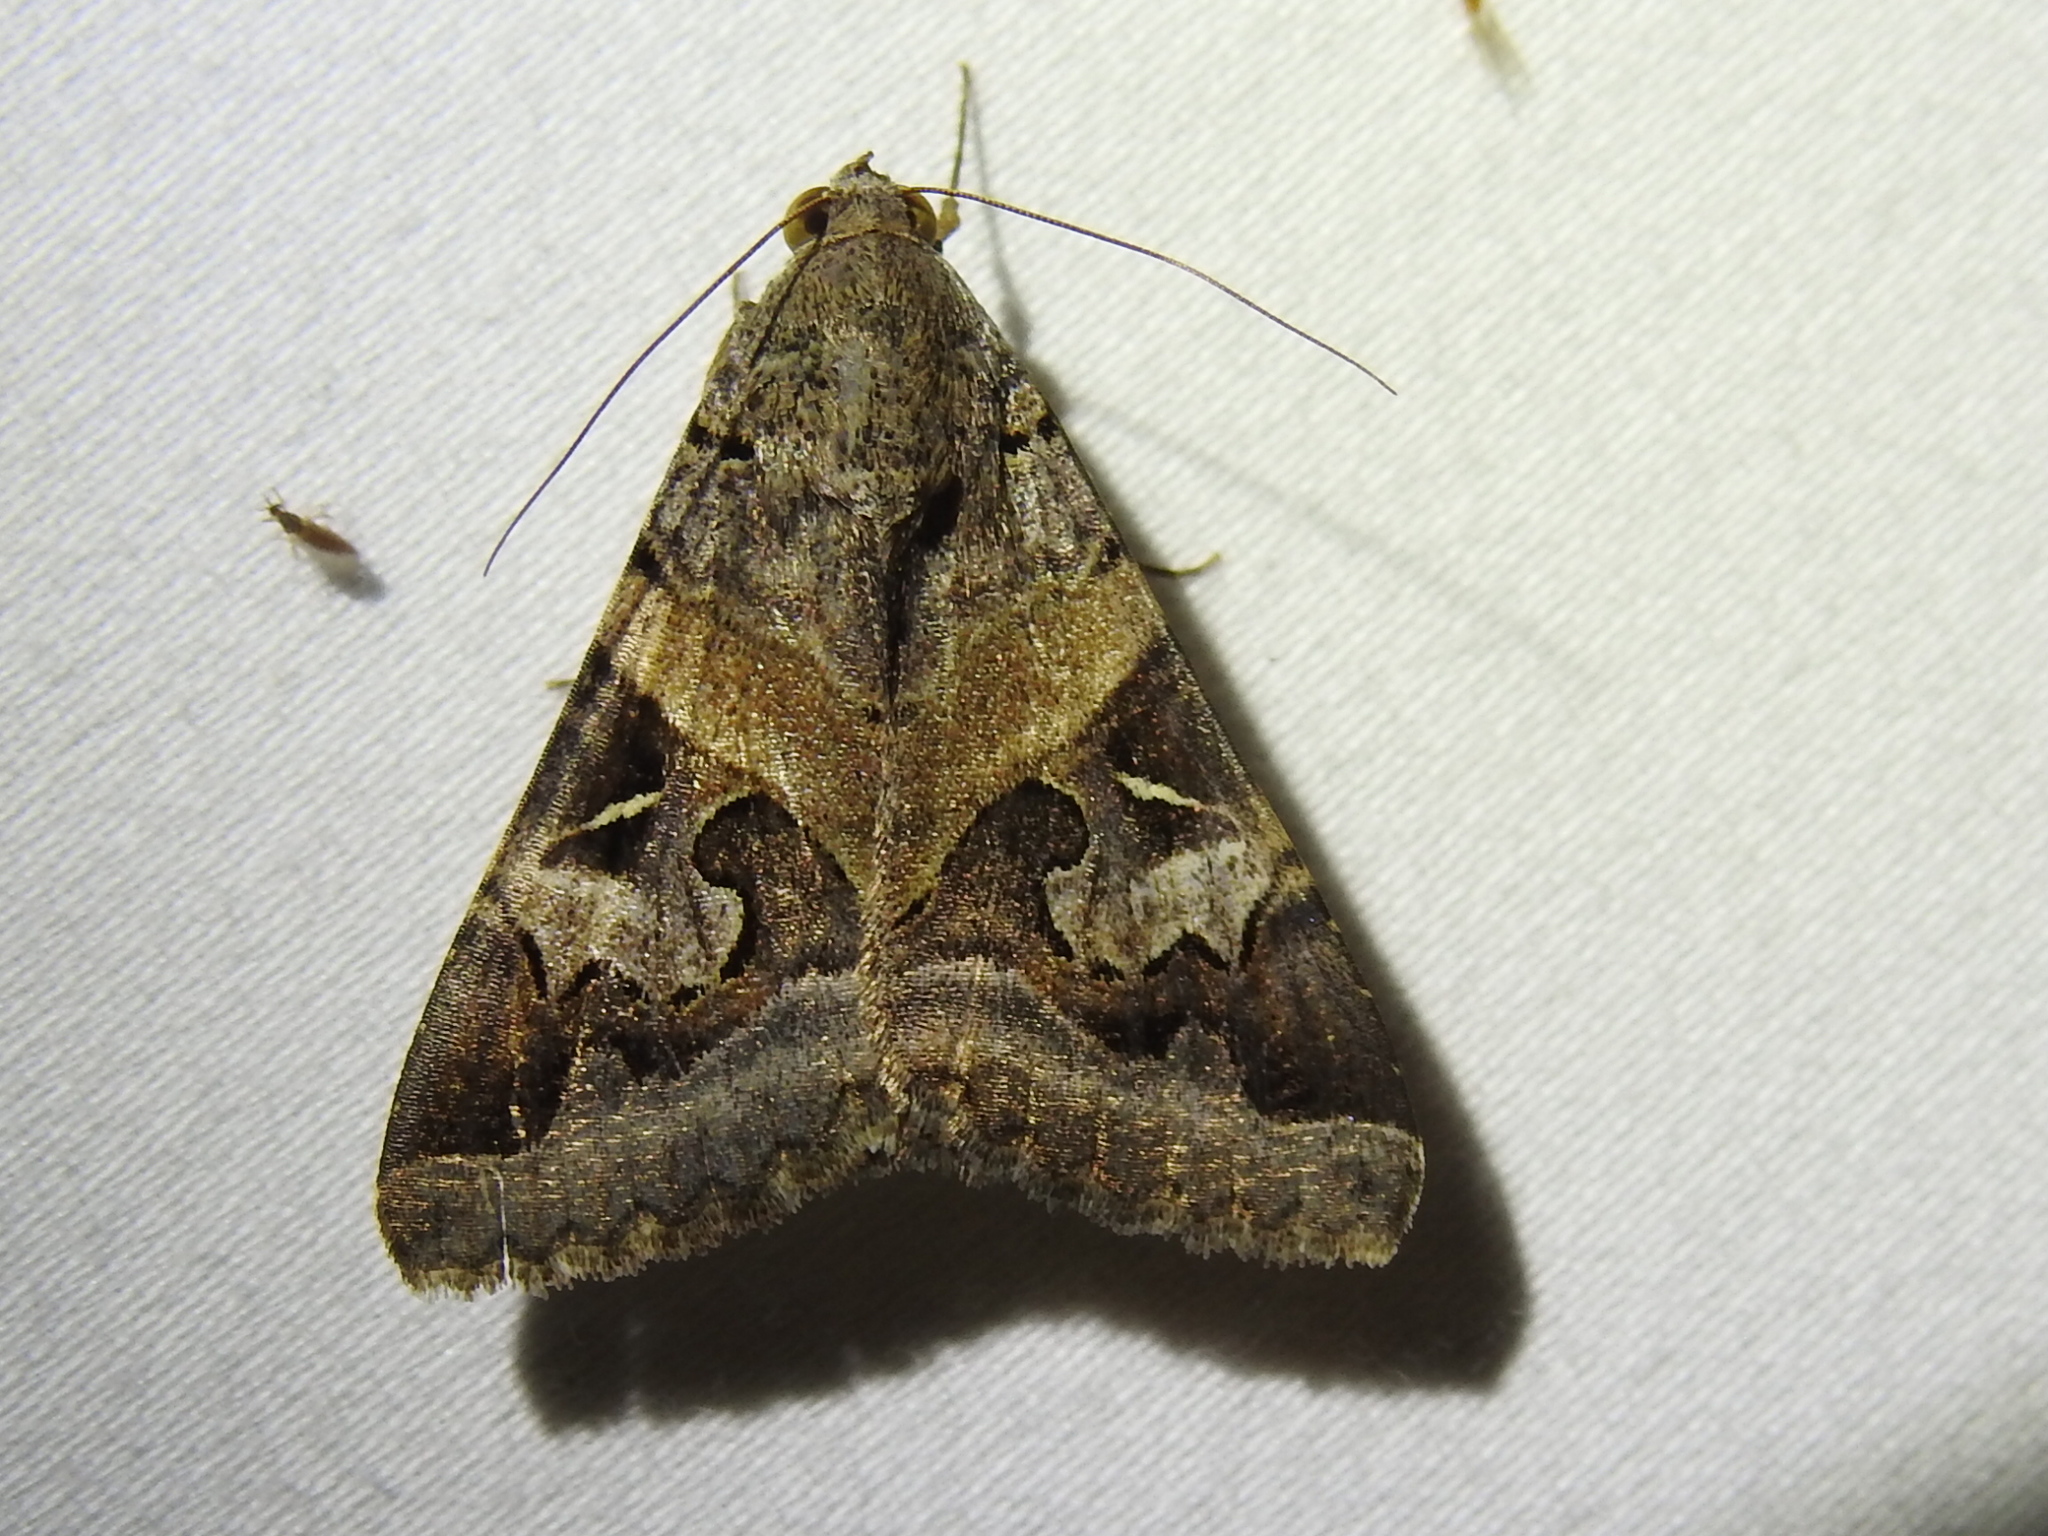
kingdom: Animalia
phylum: Arthropoda
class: Insecta
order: Lepidoptera
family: Erebidae
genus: Melipotis
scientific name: Melipotis indomita
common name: Moth
